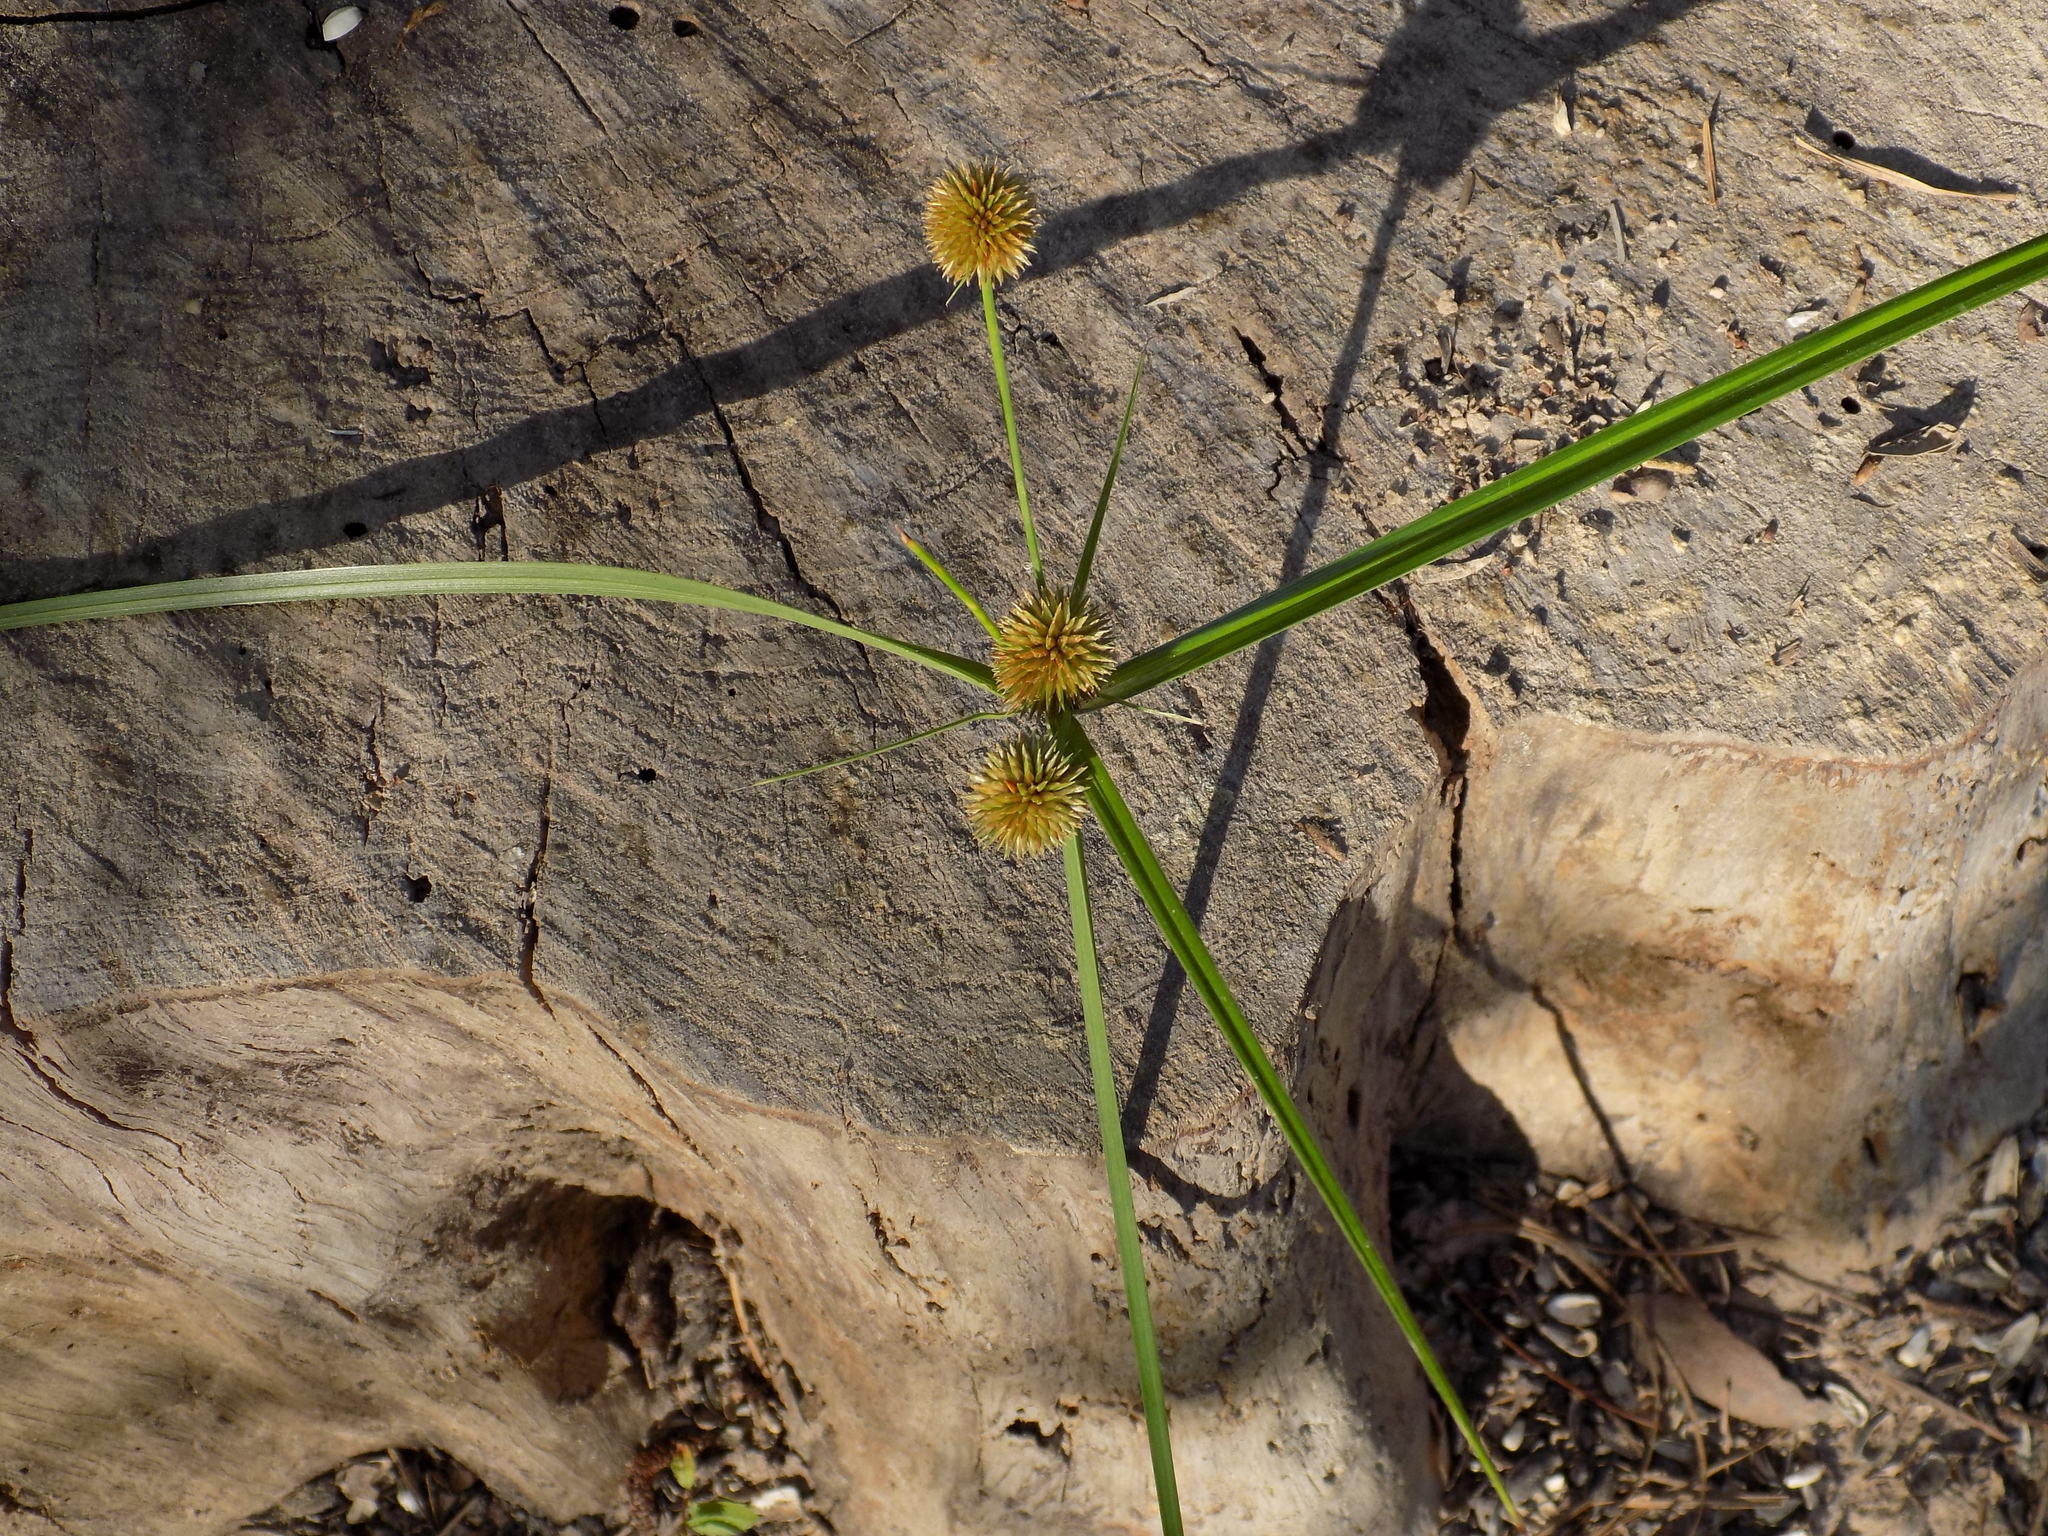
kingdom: Plantae
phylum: Tracheophyta
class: Liliopsida
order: Poales
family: Cyperaceae
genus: Cyperus
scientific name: Cyperus echinatus
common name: Teasel sedge
